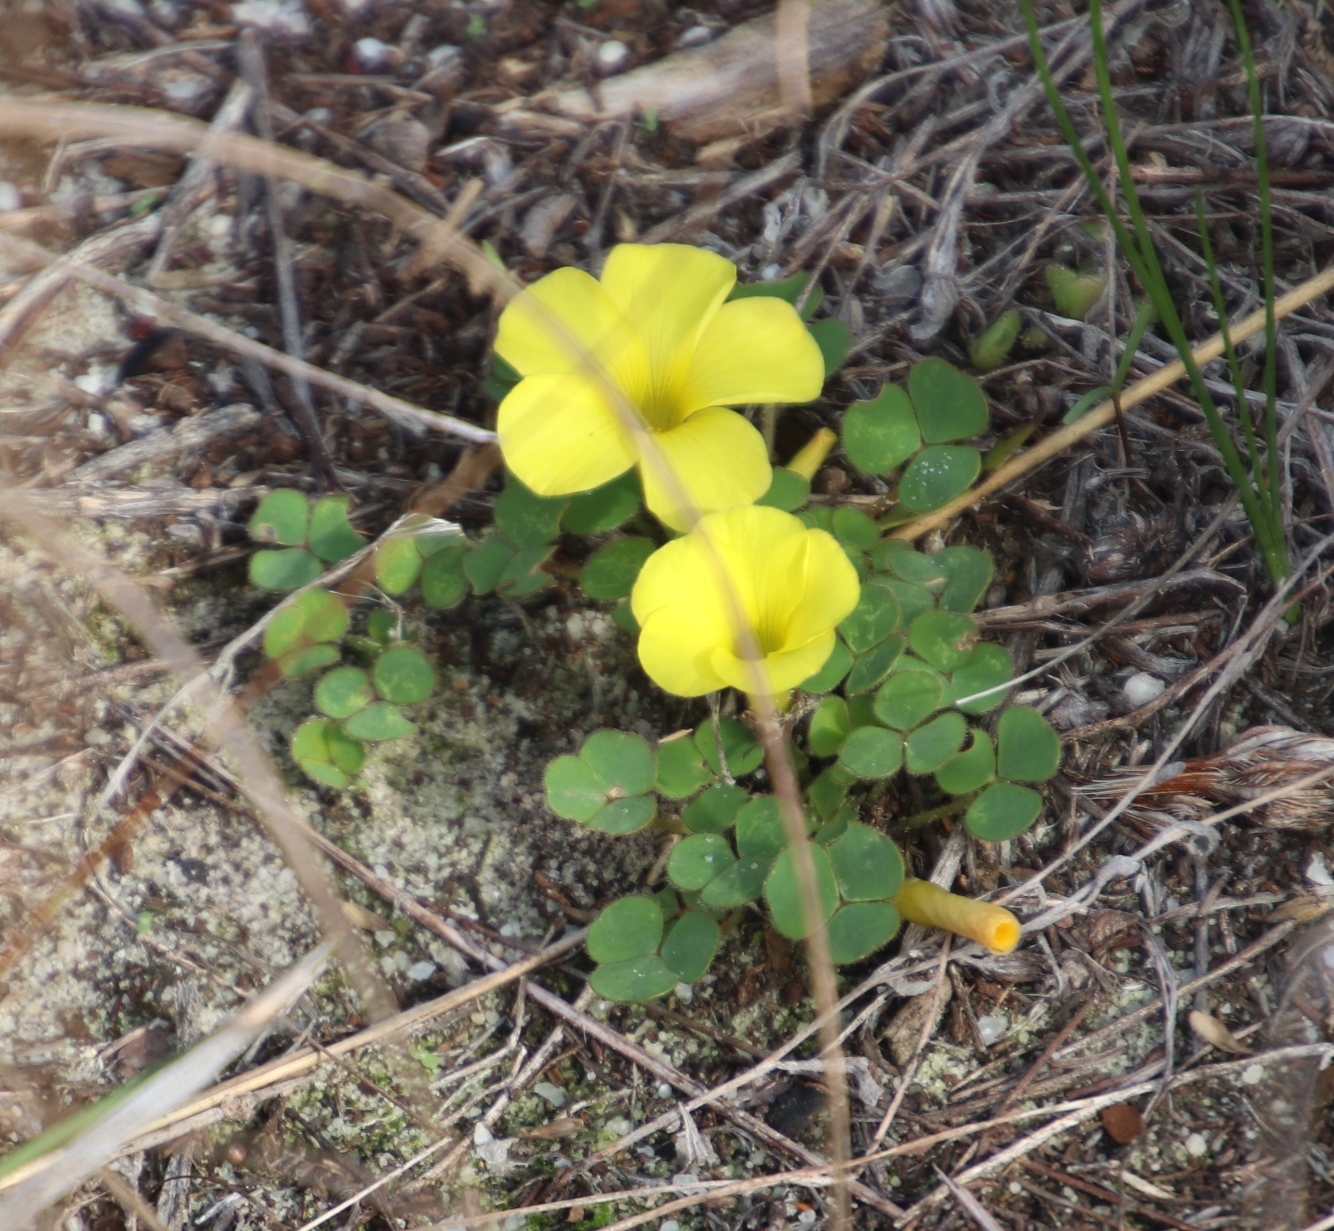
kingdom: Plantae
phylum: Tracheophyta
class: Magnoliopsida
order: Oxalidales
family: Oxalidaceae
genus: Oxalis
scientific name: Oxalis luteola
